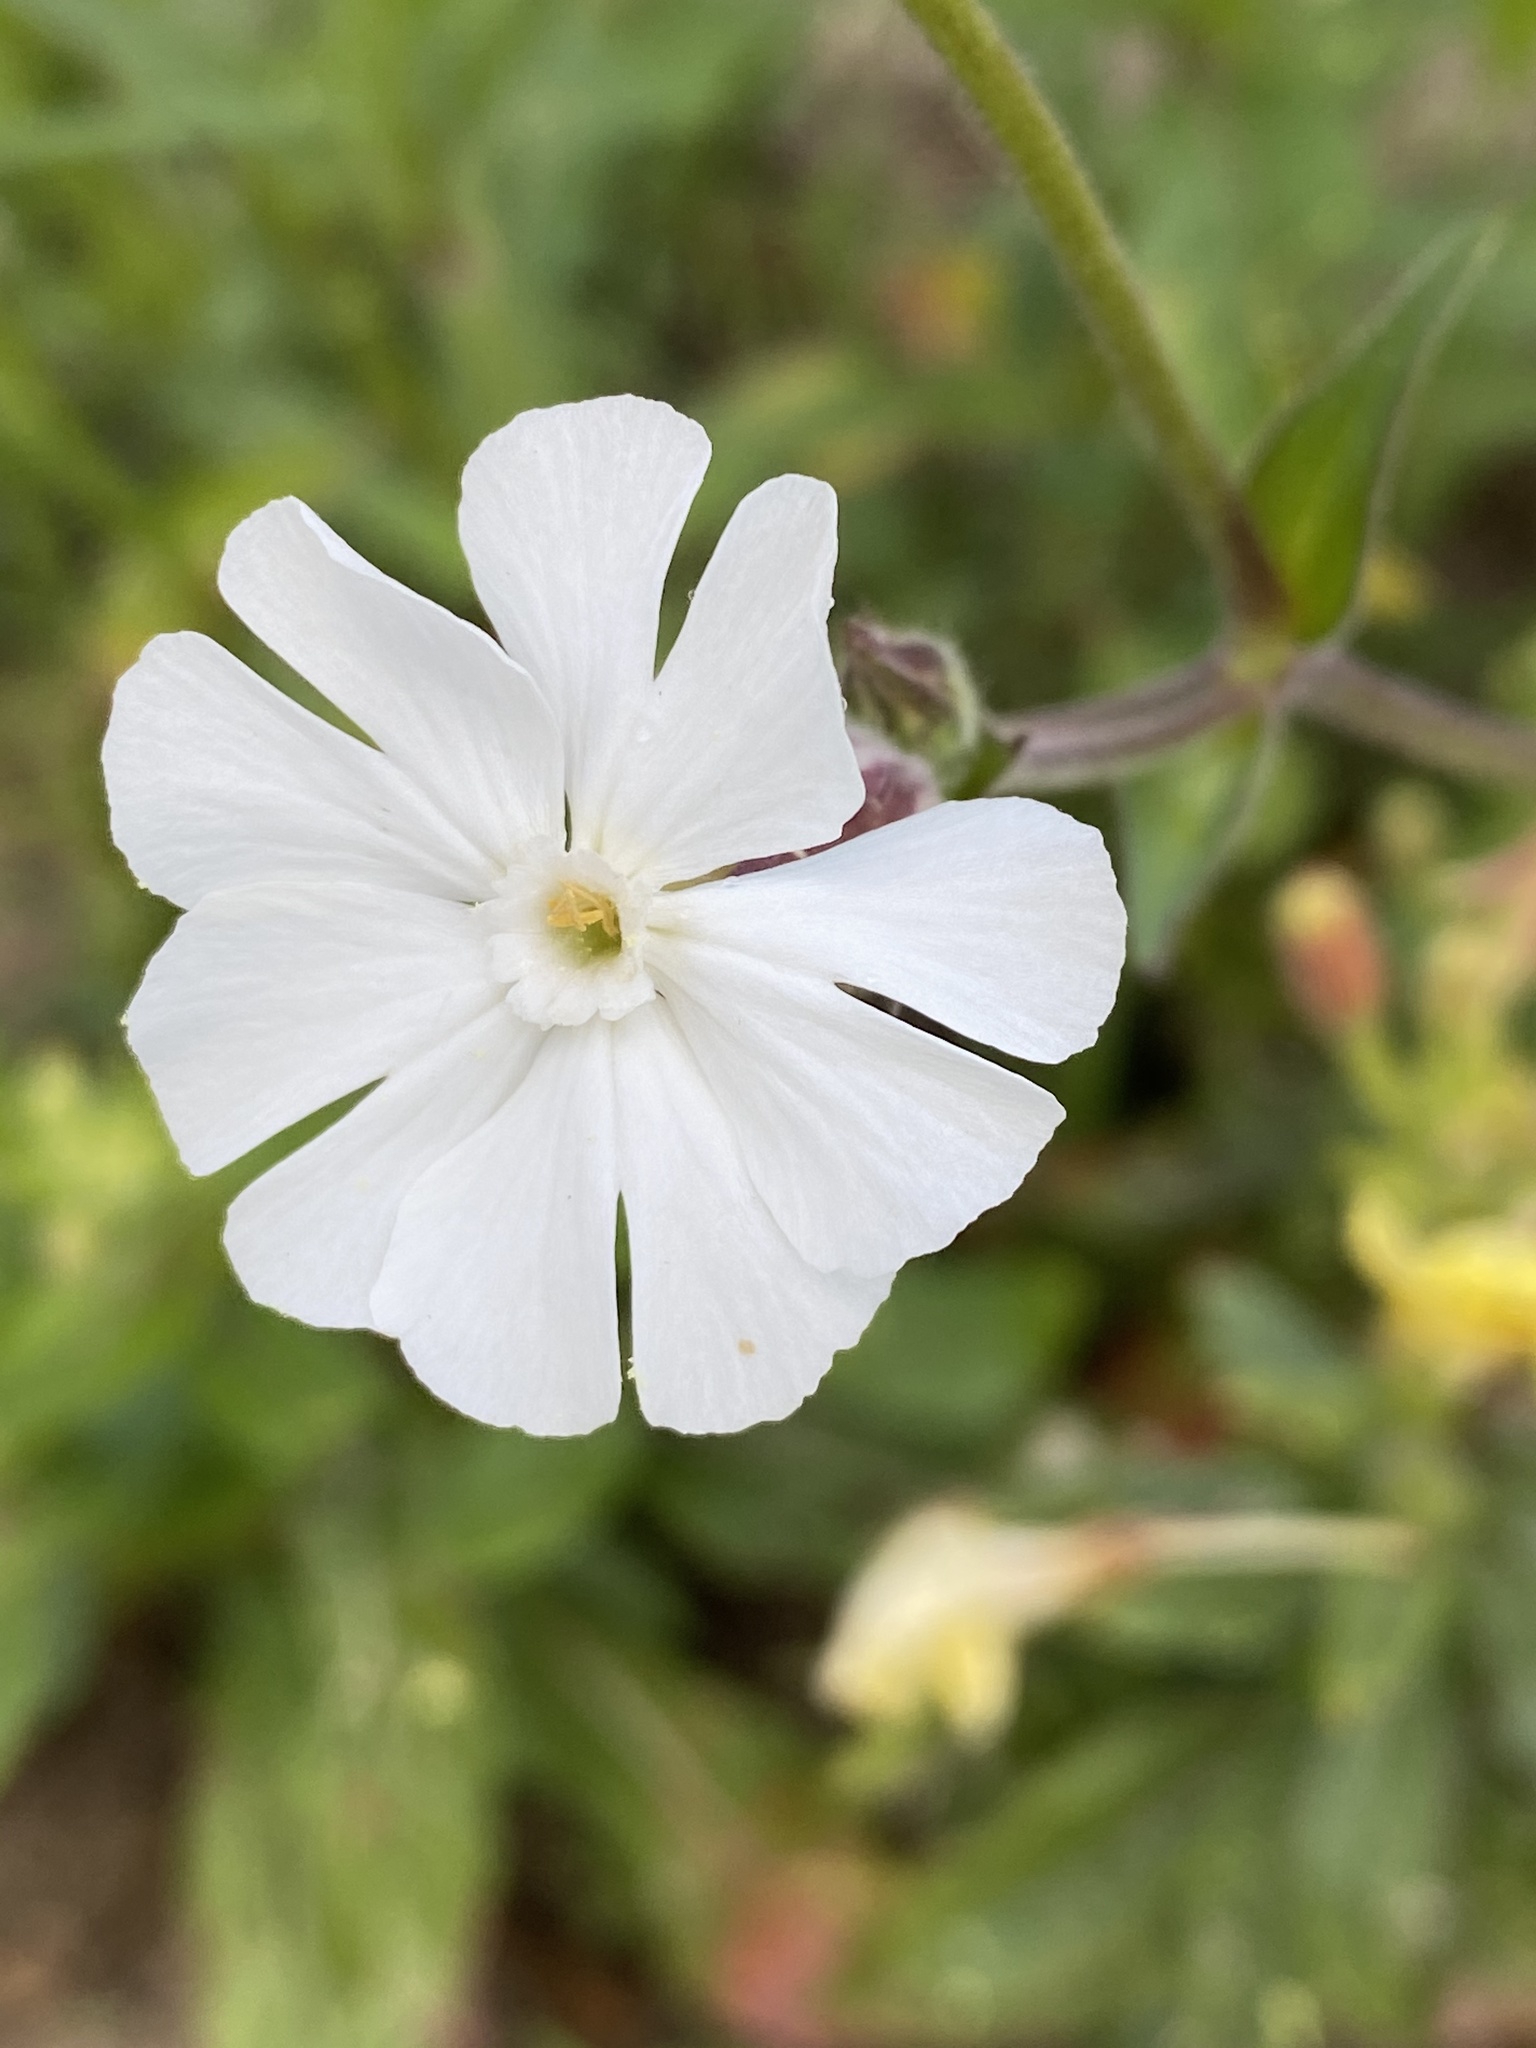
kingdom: Plantae
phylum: Tracheophyta
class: Magnoliopsida
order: Caryophyllales
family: Caryophyllaceae
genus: Silene
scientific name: Silene latifolia
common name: White campion
